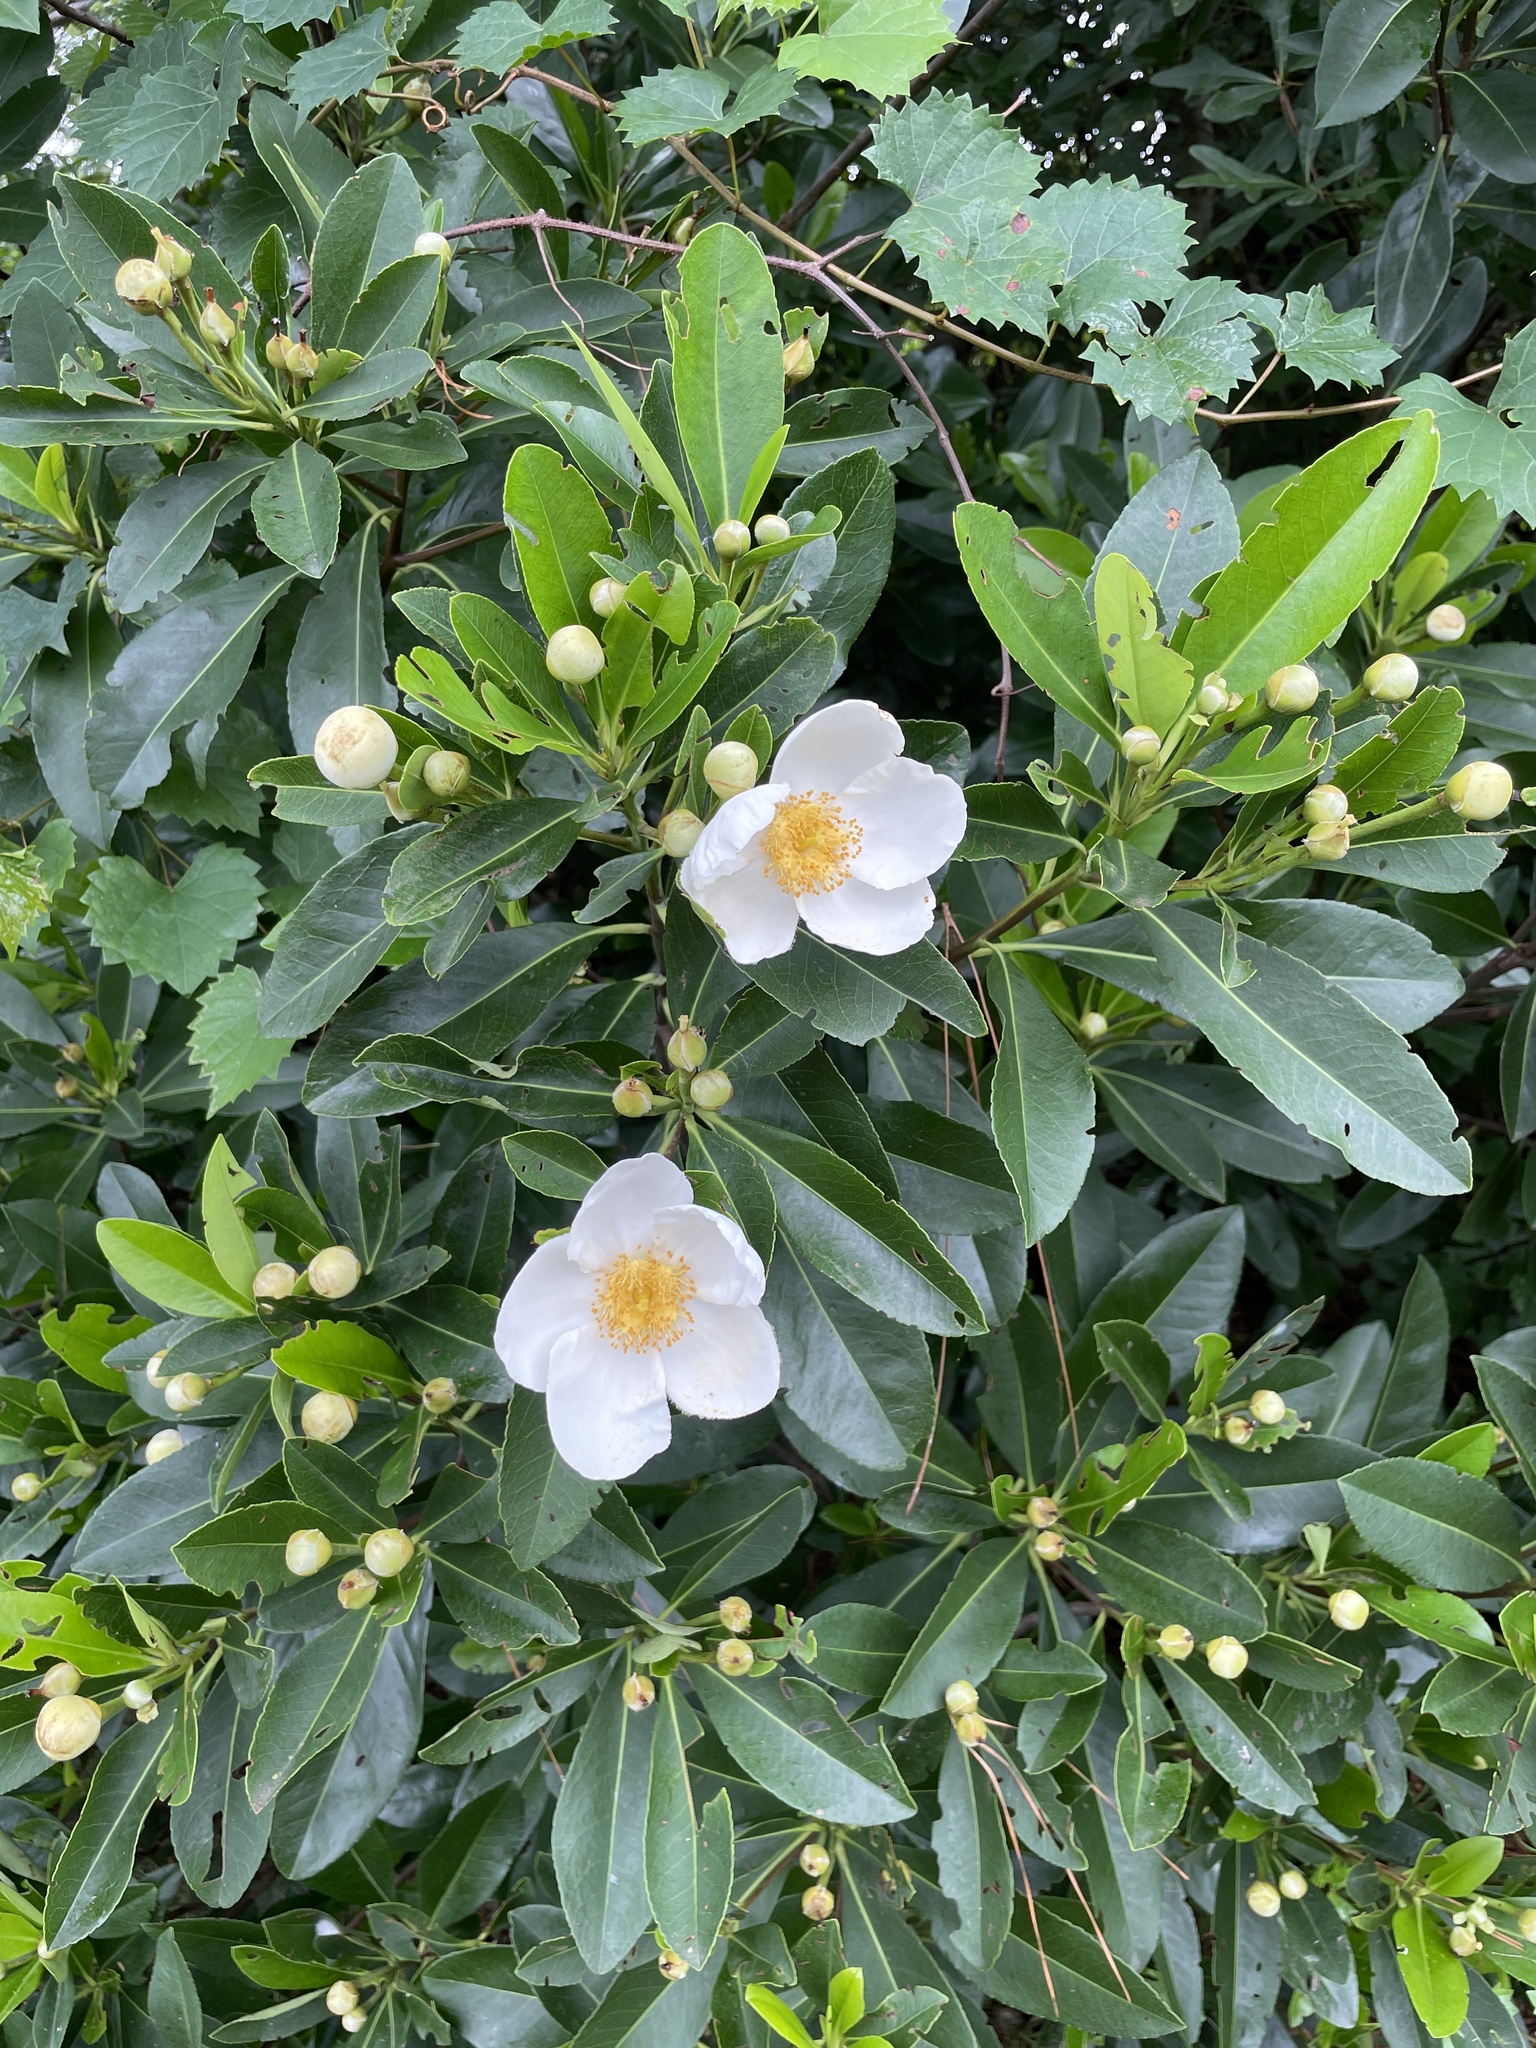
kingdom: Plantae
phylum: Tracheophyta
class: Magnoliopsida
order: Ericales
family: Theaceae
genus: Gordonia
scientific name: Gordonia lasianthus
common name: Loblolly bay
